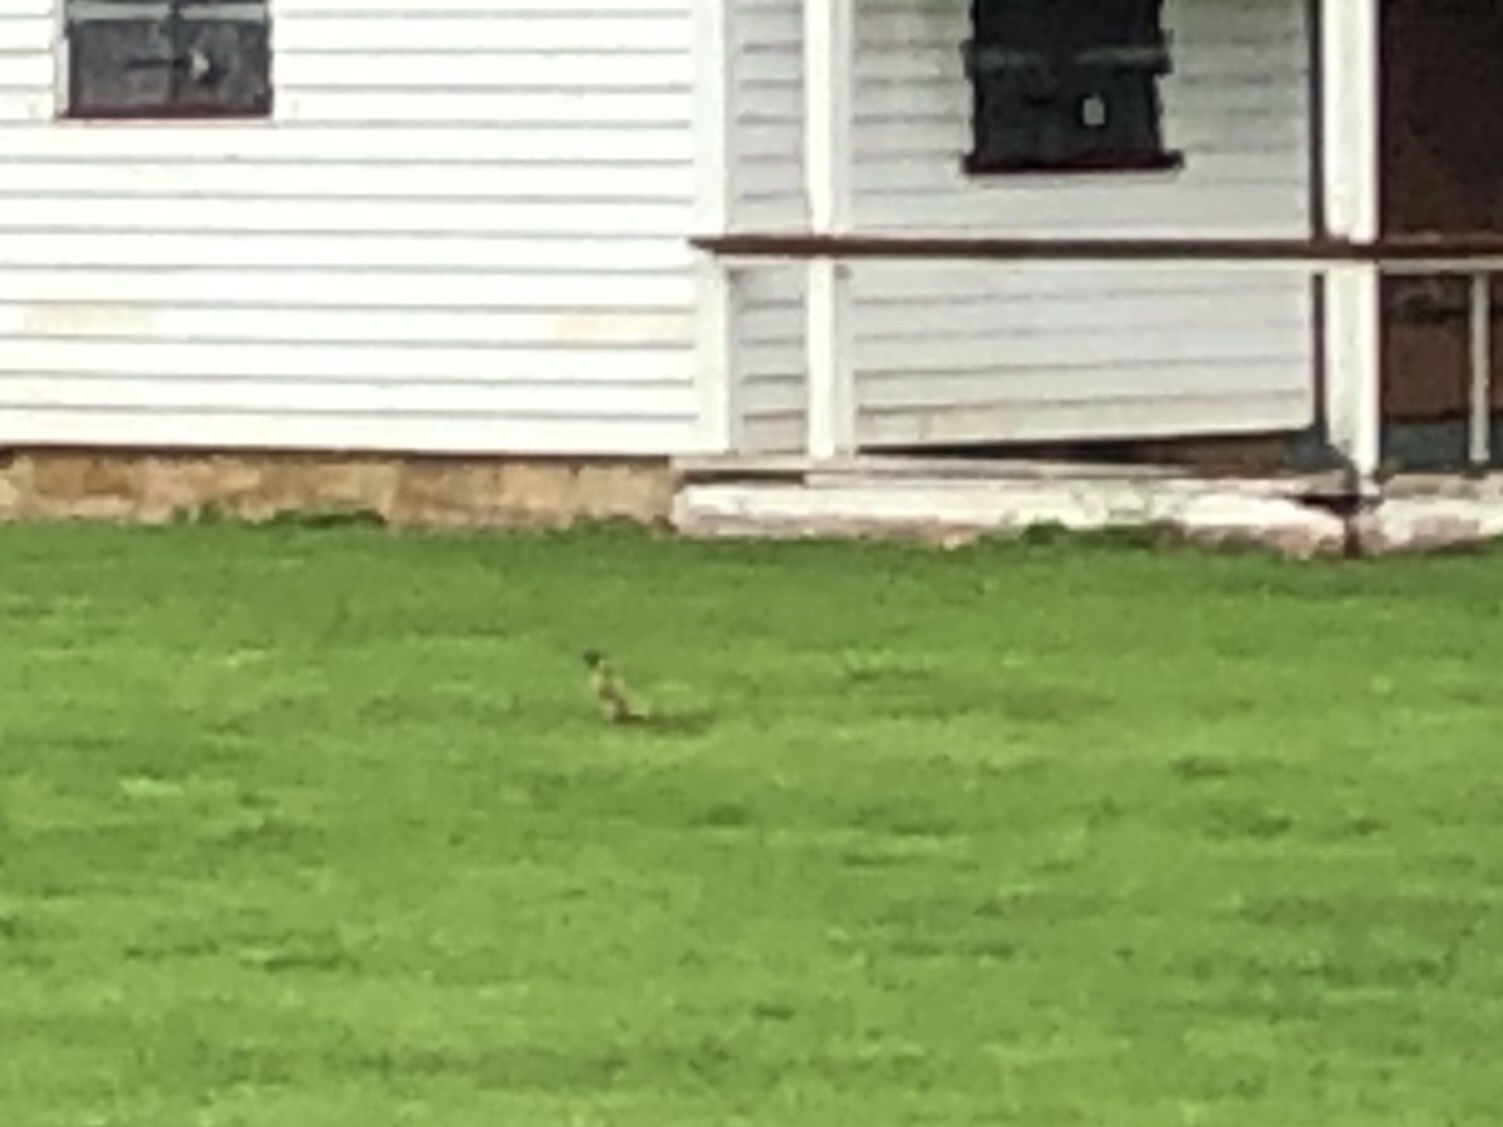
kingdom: Animalia
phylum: Chordata
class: Aves
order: Piciformes
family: Picidae
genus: Picus
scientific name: Picus viridis
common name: European green woodpecker
